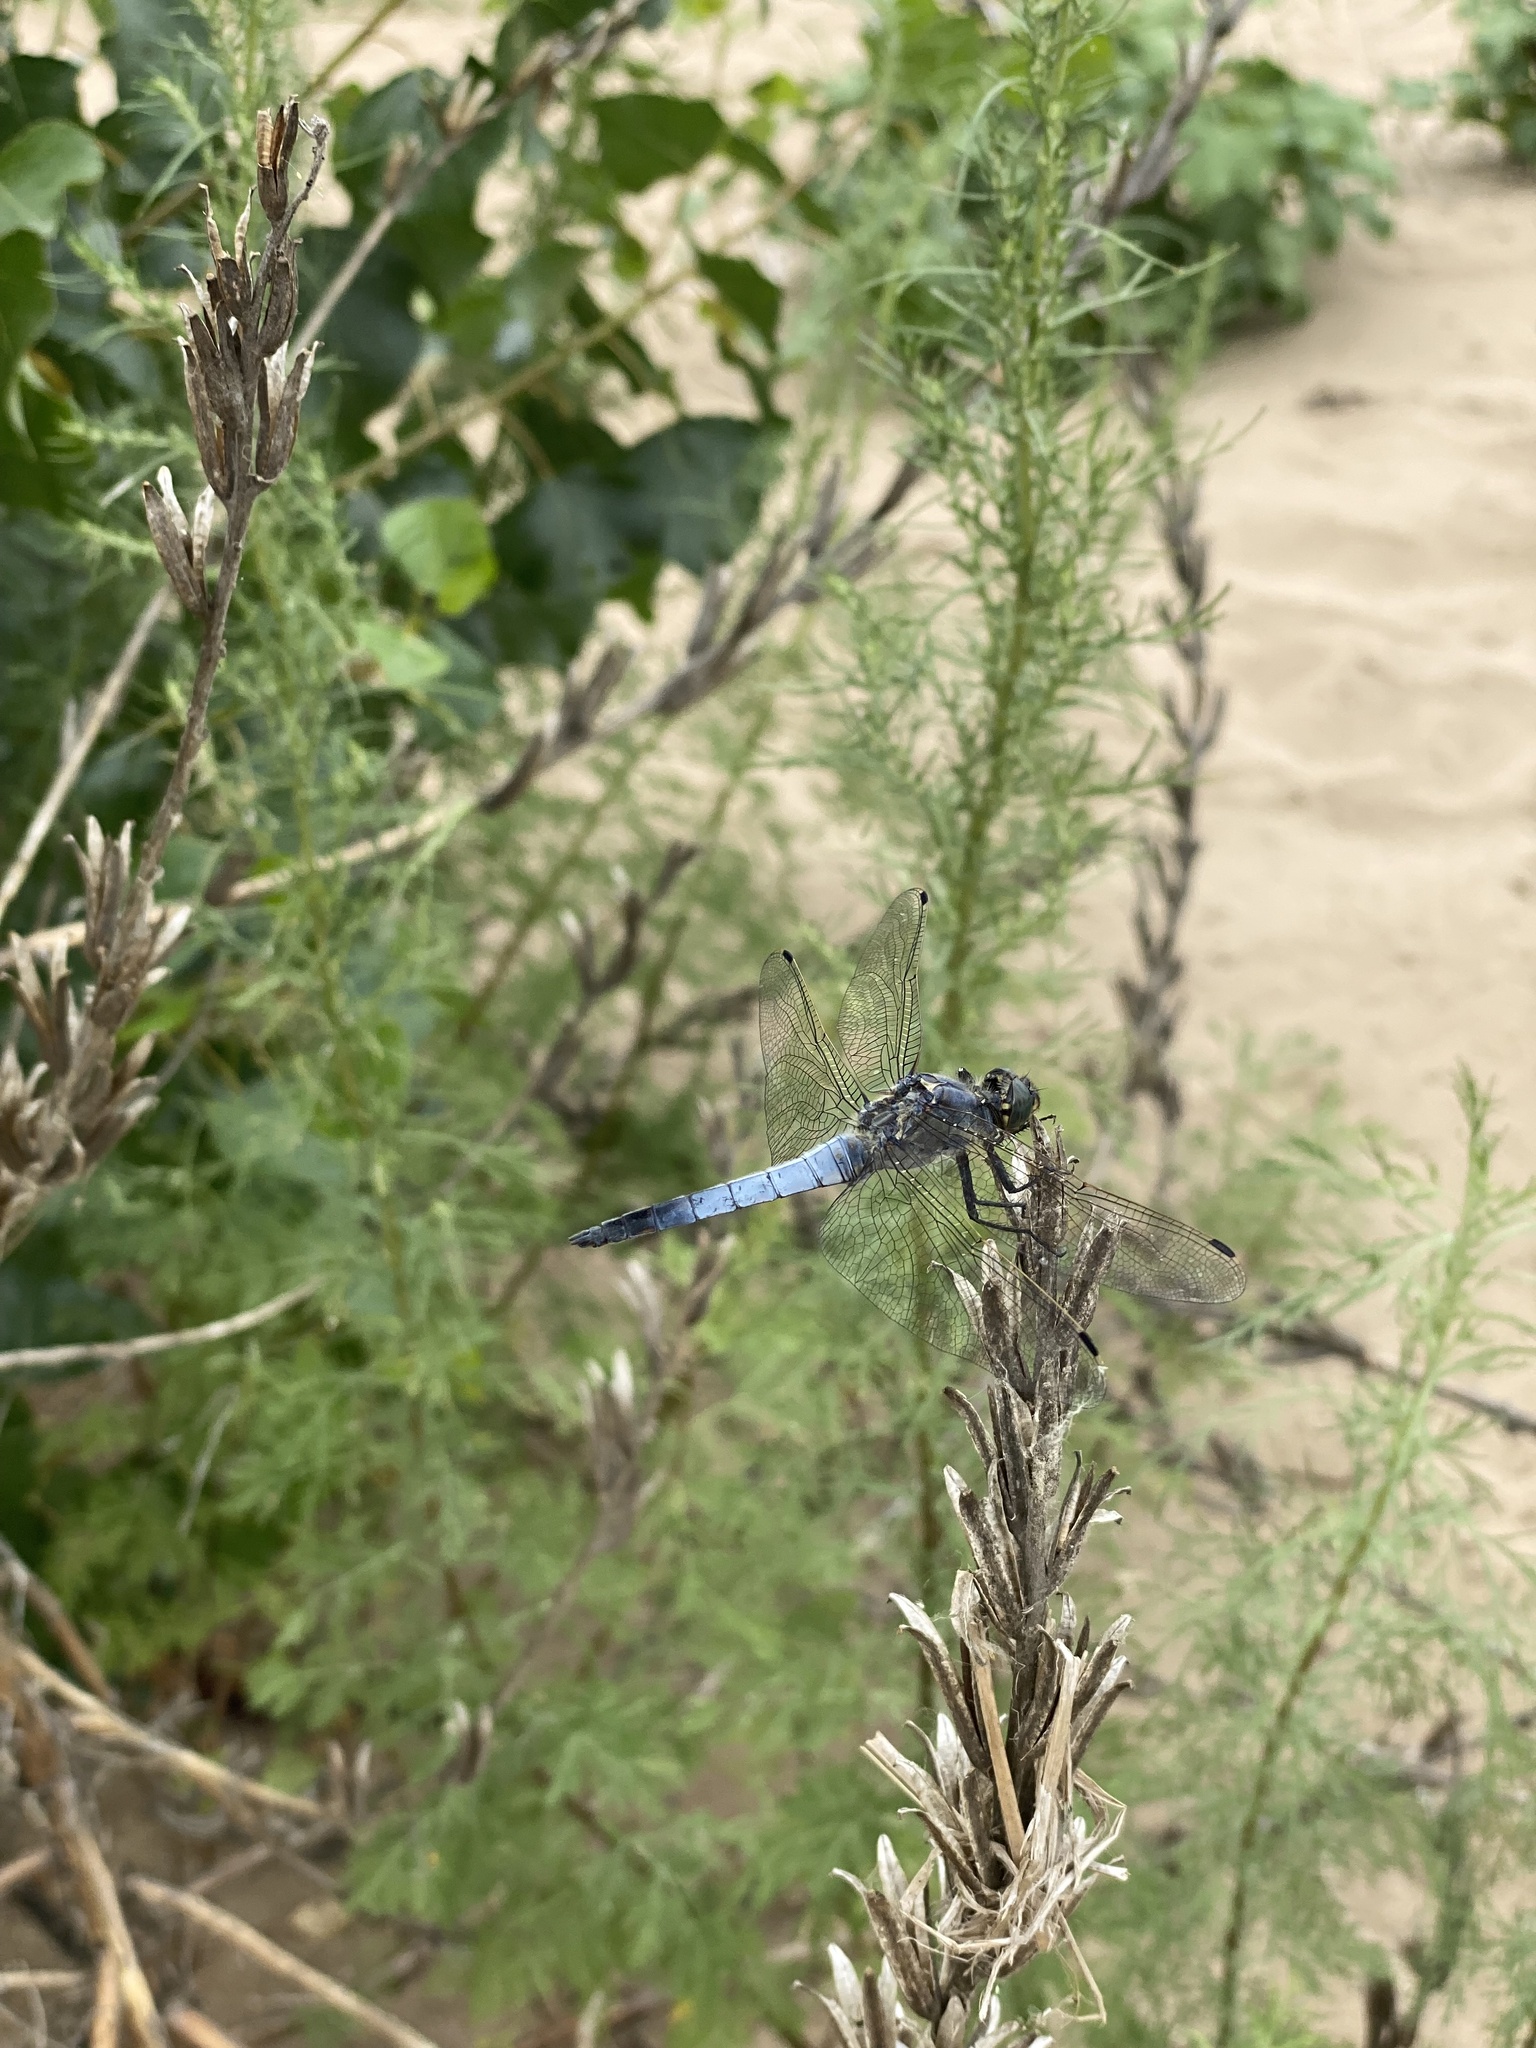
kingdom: Animalia
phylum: Arthropoda
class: Insecta
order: Odonata
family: Libellulidae
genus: Orthetrum
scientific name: Orthetrum cancellatum
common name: Black-tailed skimmer
